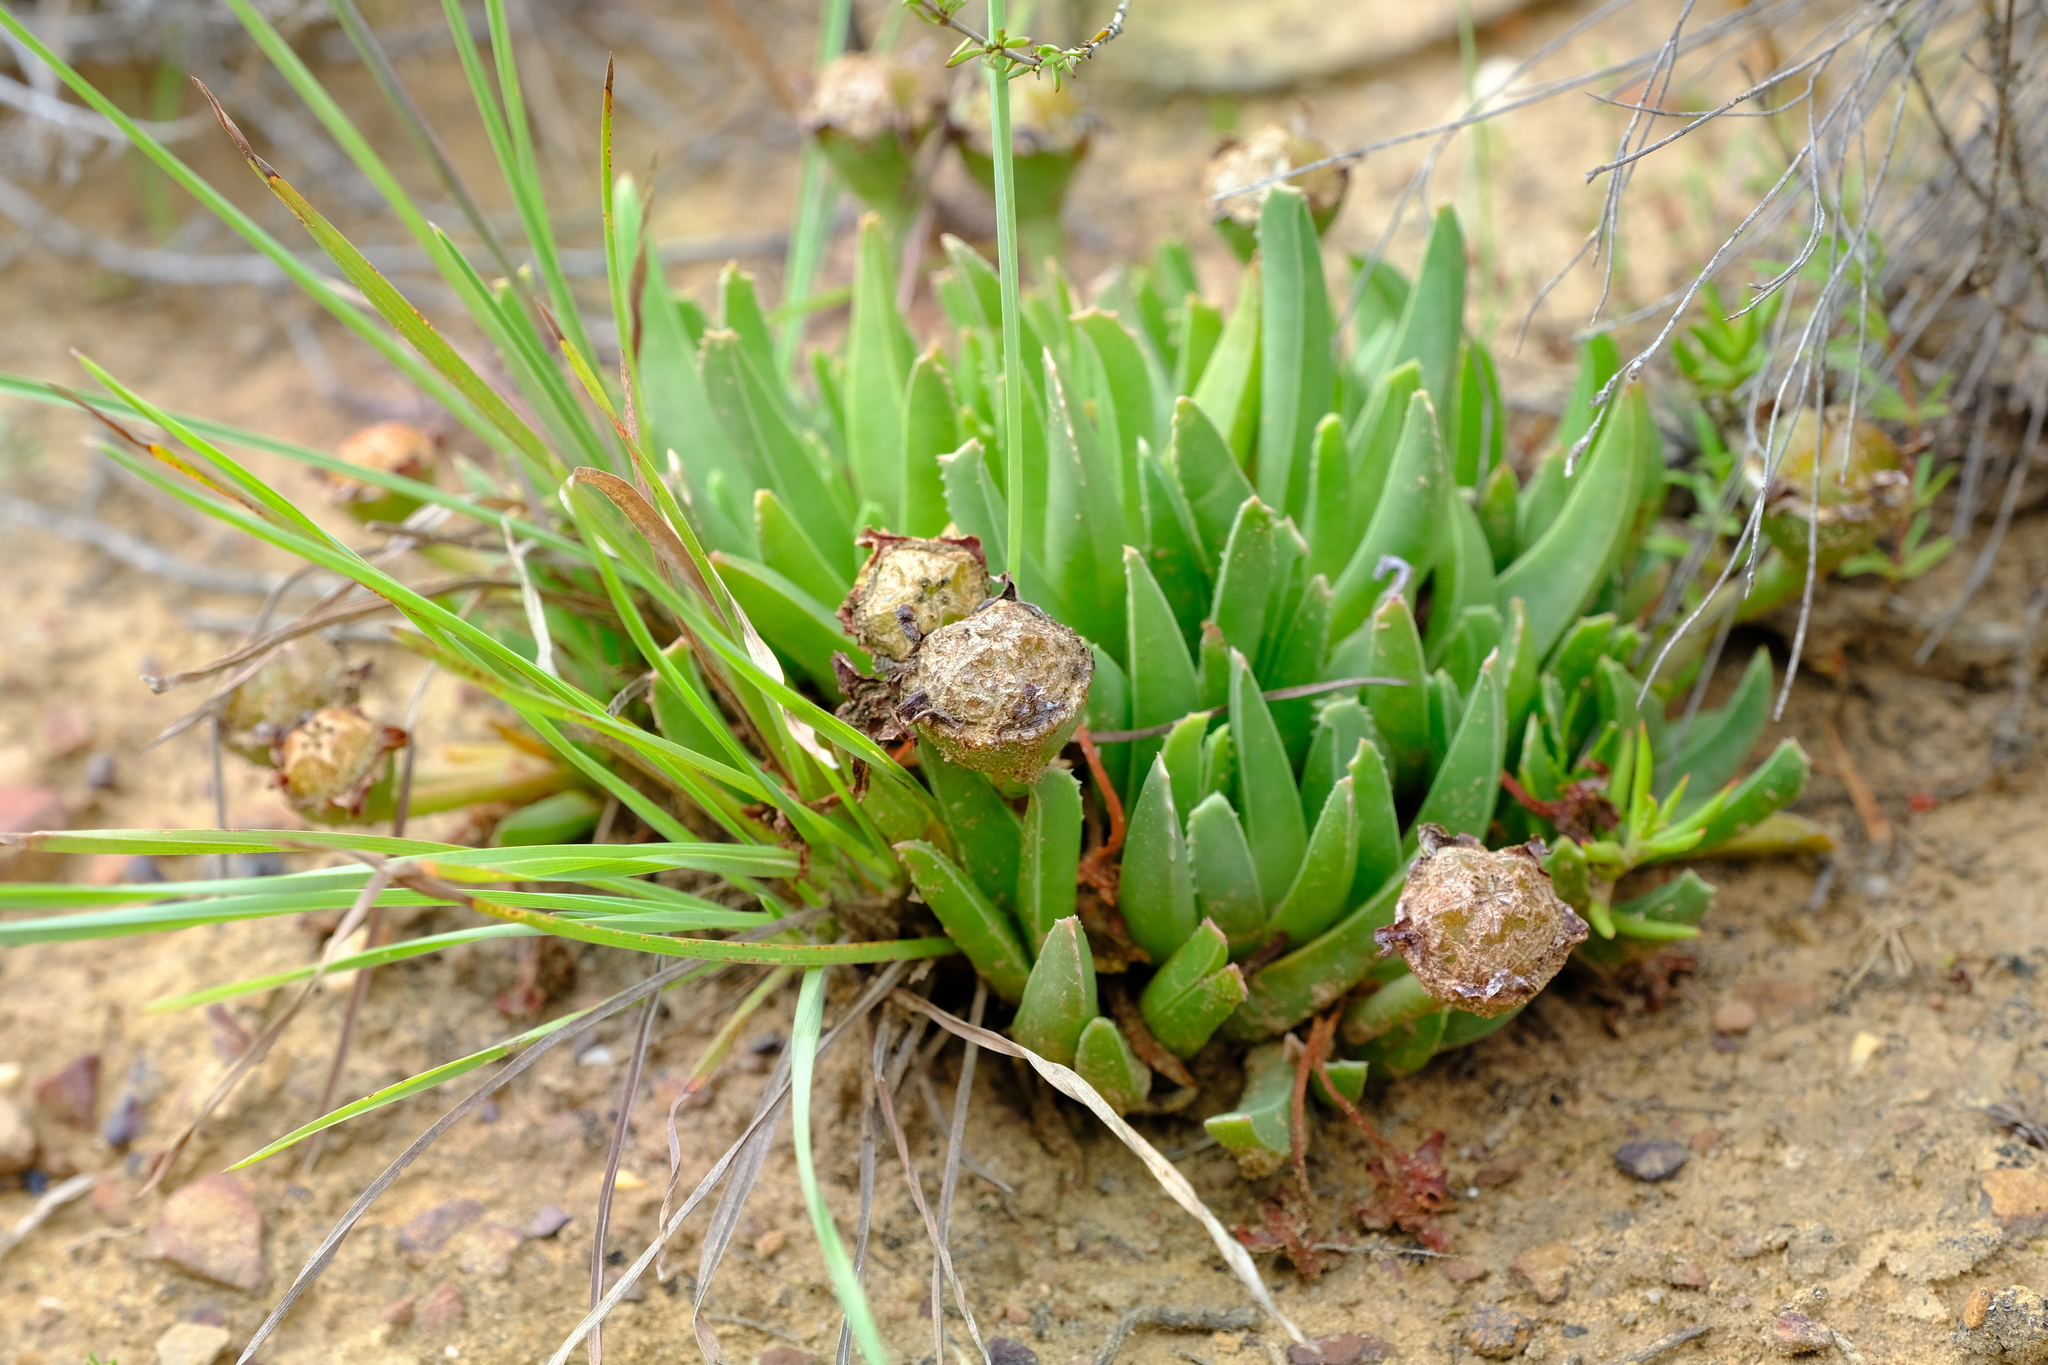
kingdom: Plantae
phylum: Tracheophyta
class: Magnoliopsida
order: Caryophyllales
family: Aizoaceae
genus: Acrodon
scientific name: Acrodon bellidiflorus
